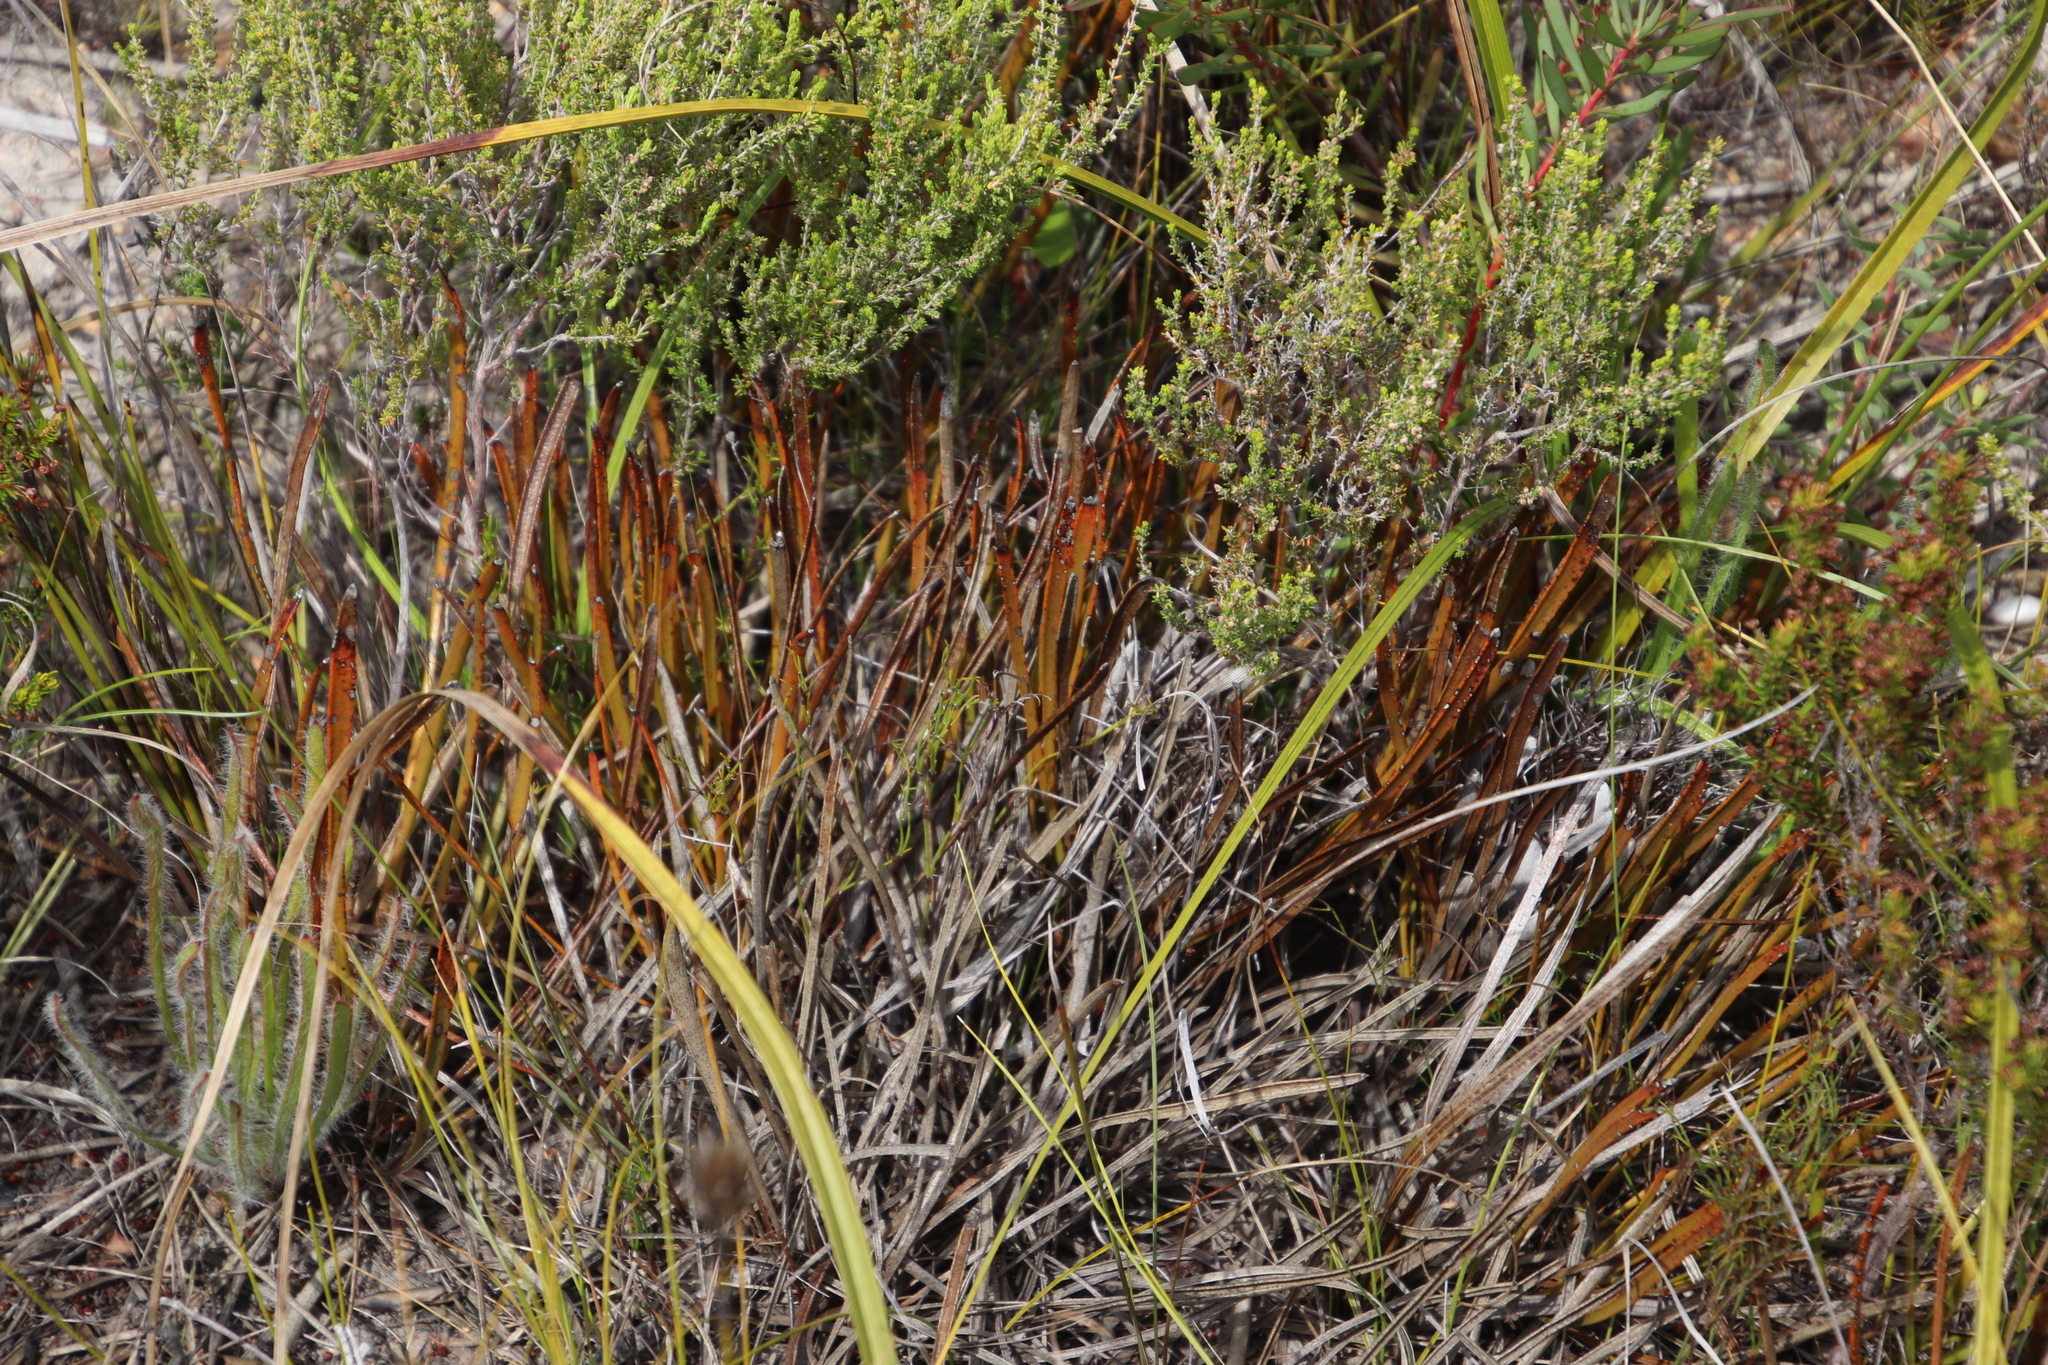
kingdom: Plantae
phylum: Tracheophyta
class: Magnoliopsida
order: Proteales
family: Proteaceae
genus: Protea
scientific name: Protea aspera
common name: Rough-leaf sugarbush
